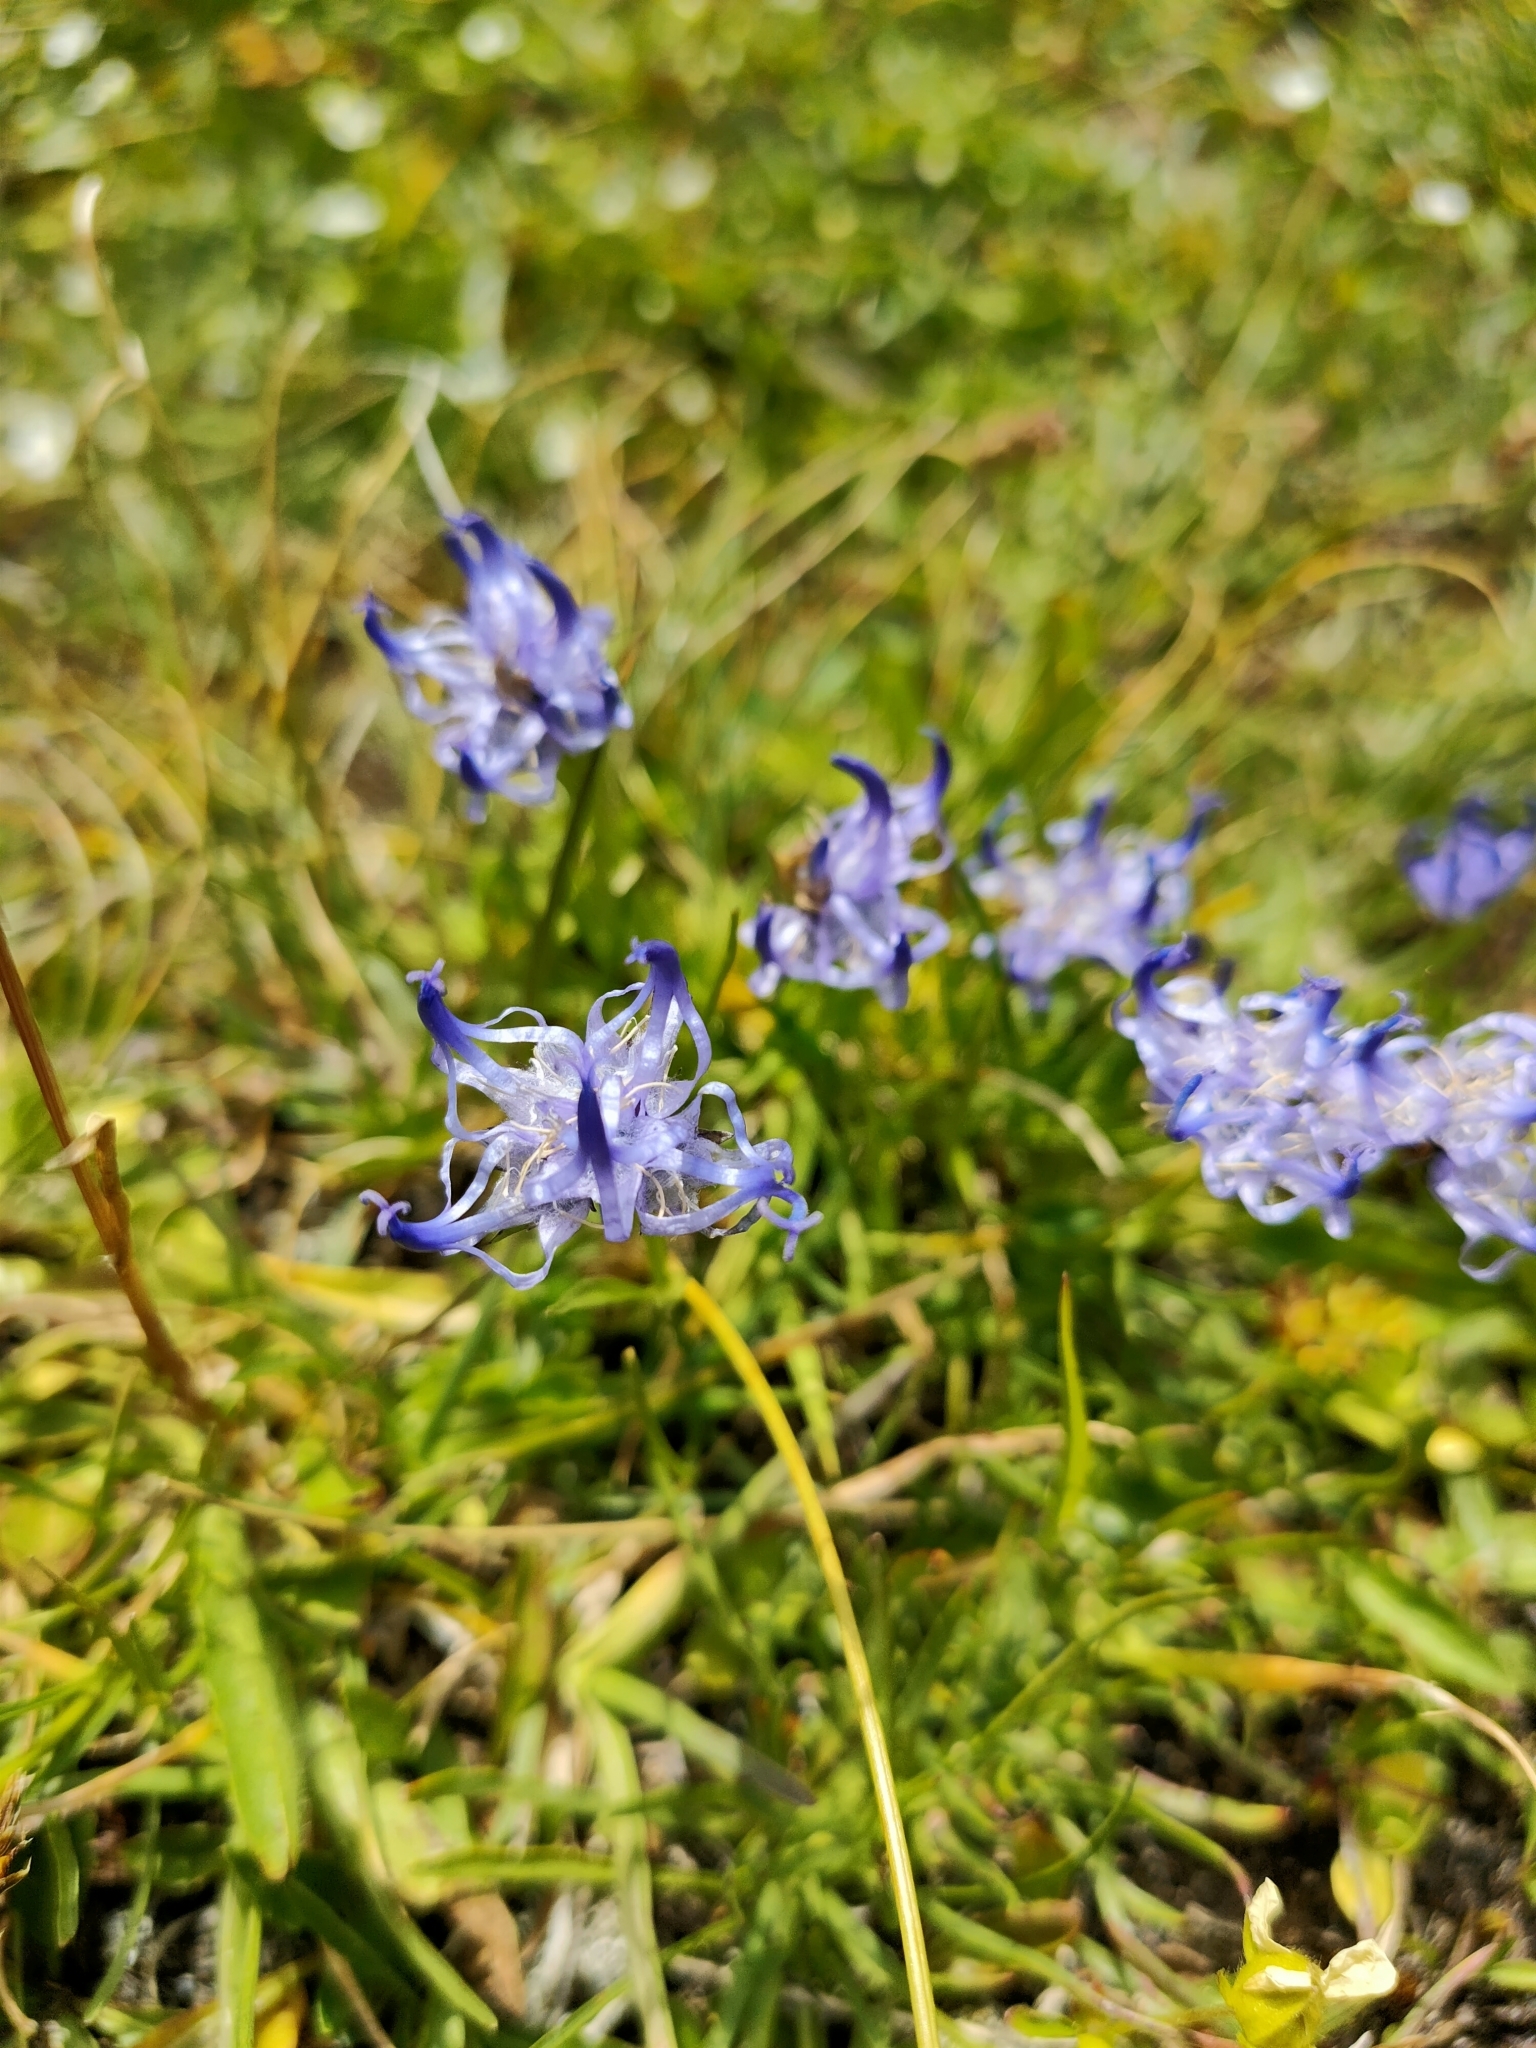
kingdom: Plantae
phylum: Tracheophyta
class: Magnoliopsida
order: Asterales
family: Campanulaceae
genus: Phyteuma
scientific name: Phyteuma hemisphaericum
